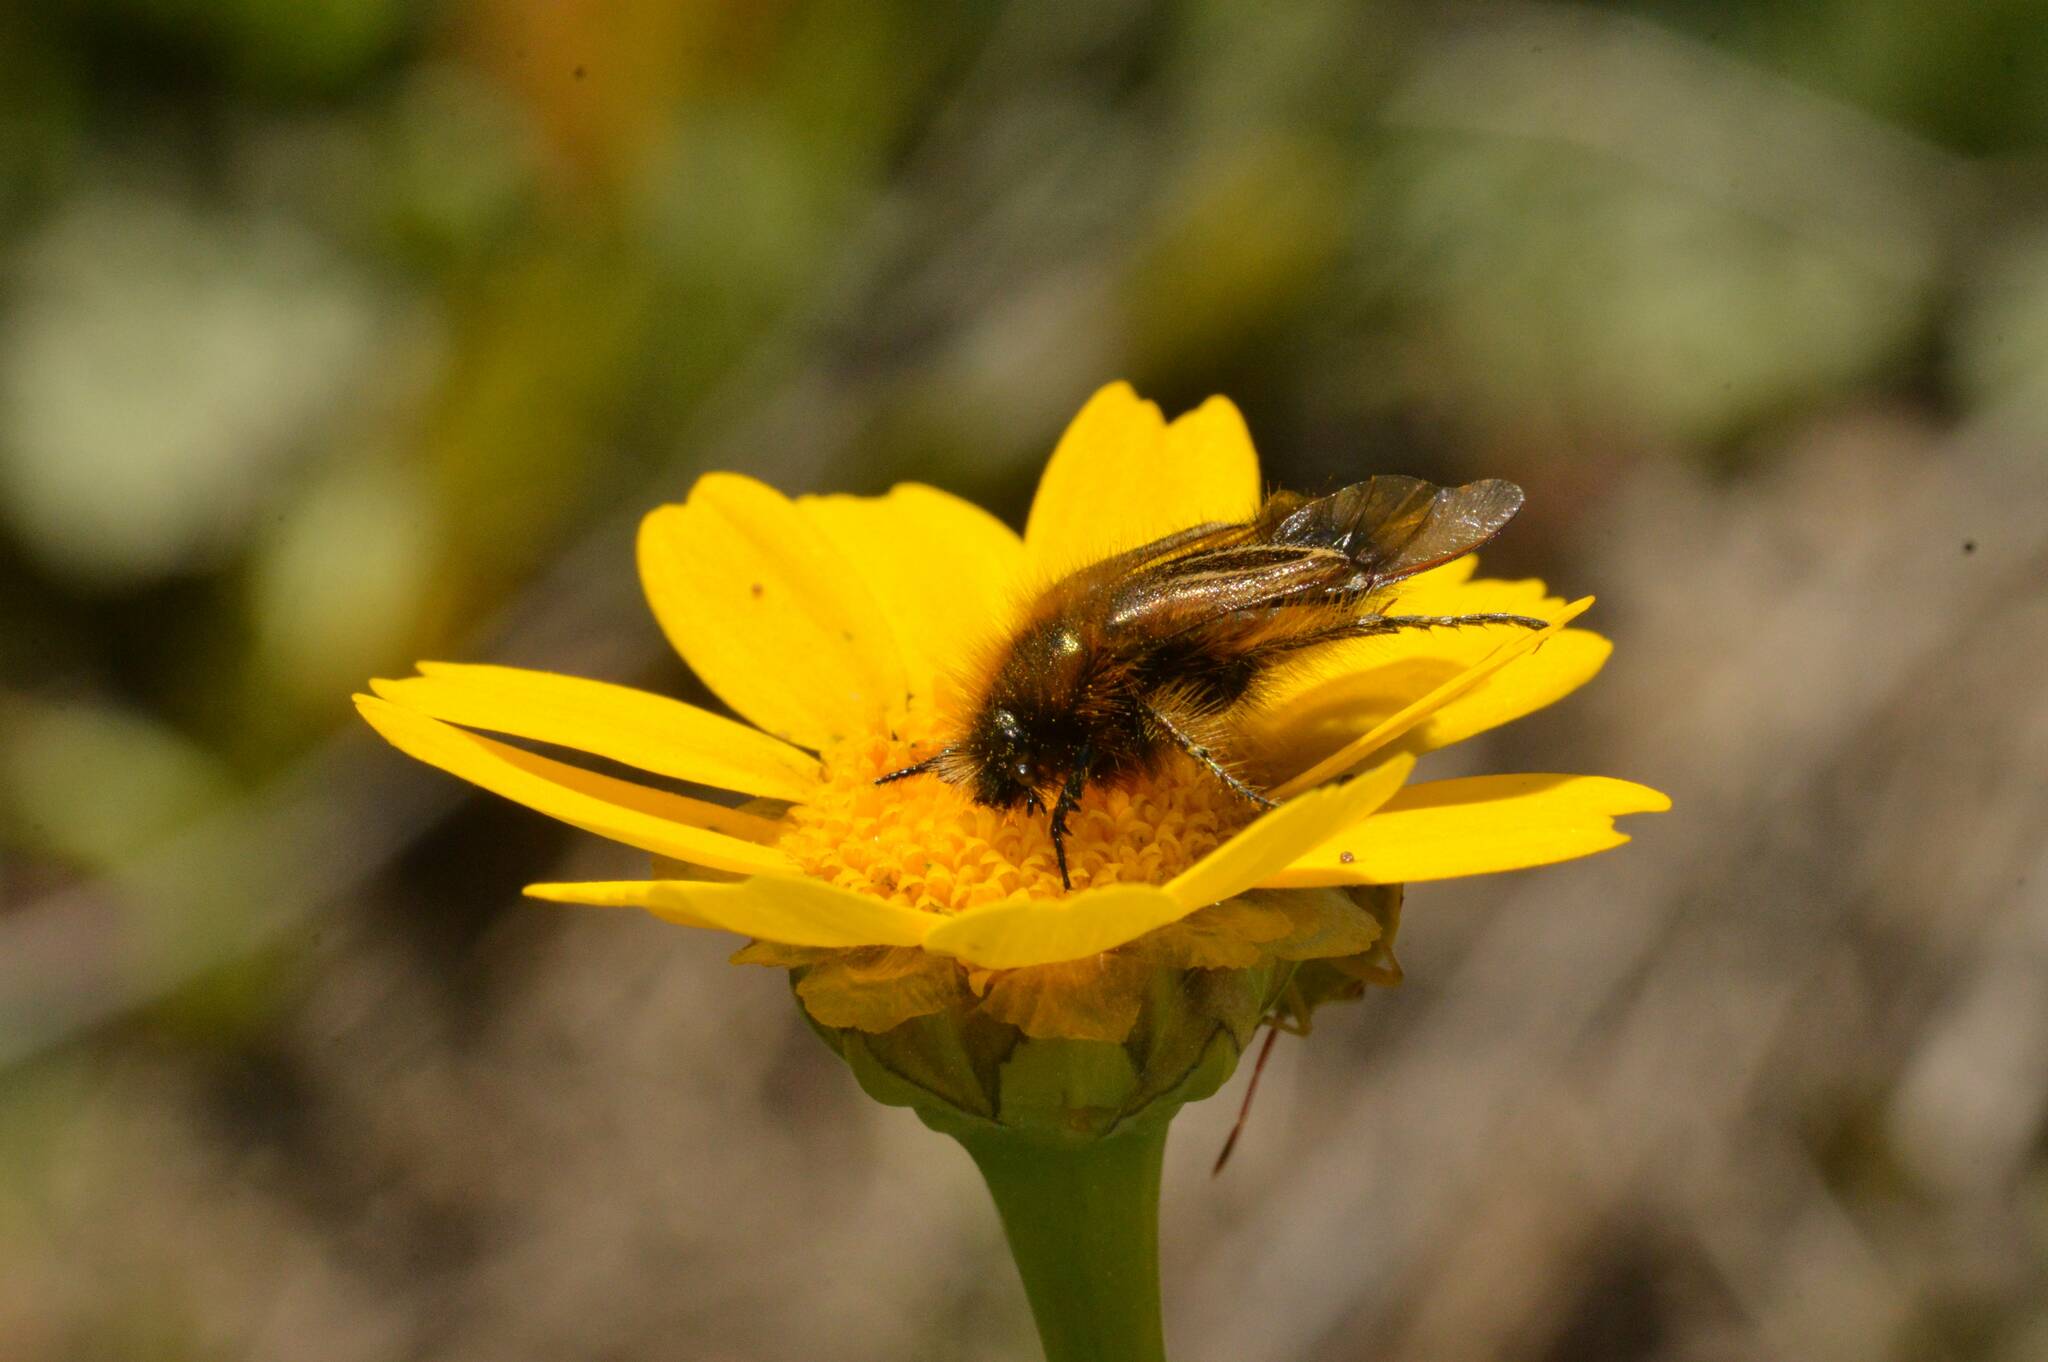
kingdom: Animalia
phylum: Arthropoda
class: Insecta
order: Coleoptera
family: Glaphyridae
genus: Eulasia
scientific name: Eulasia bombylius
